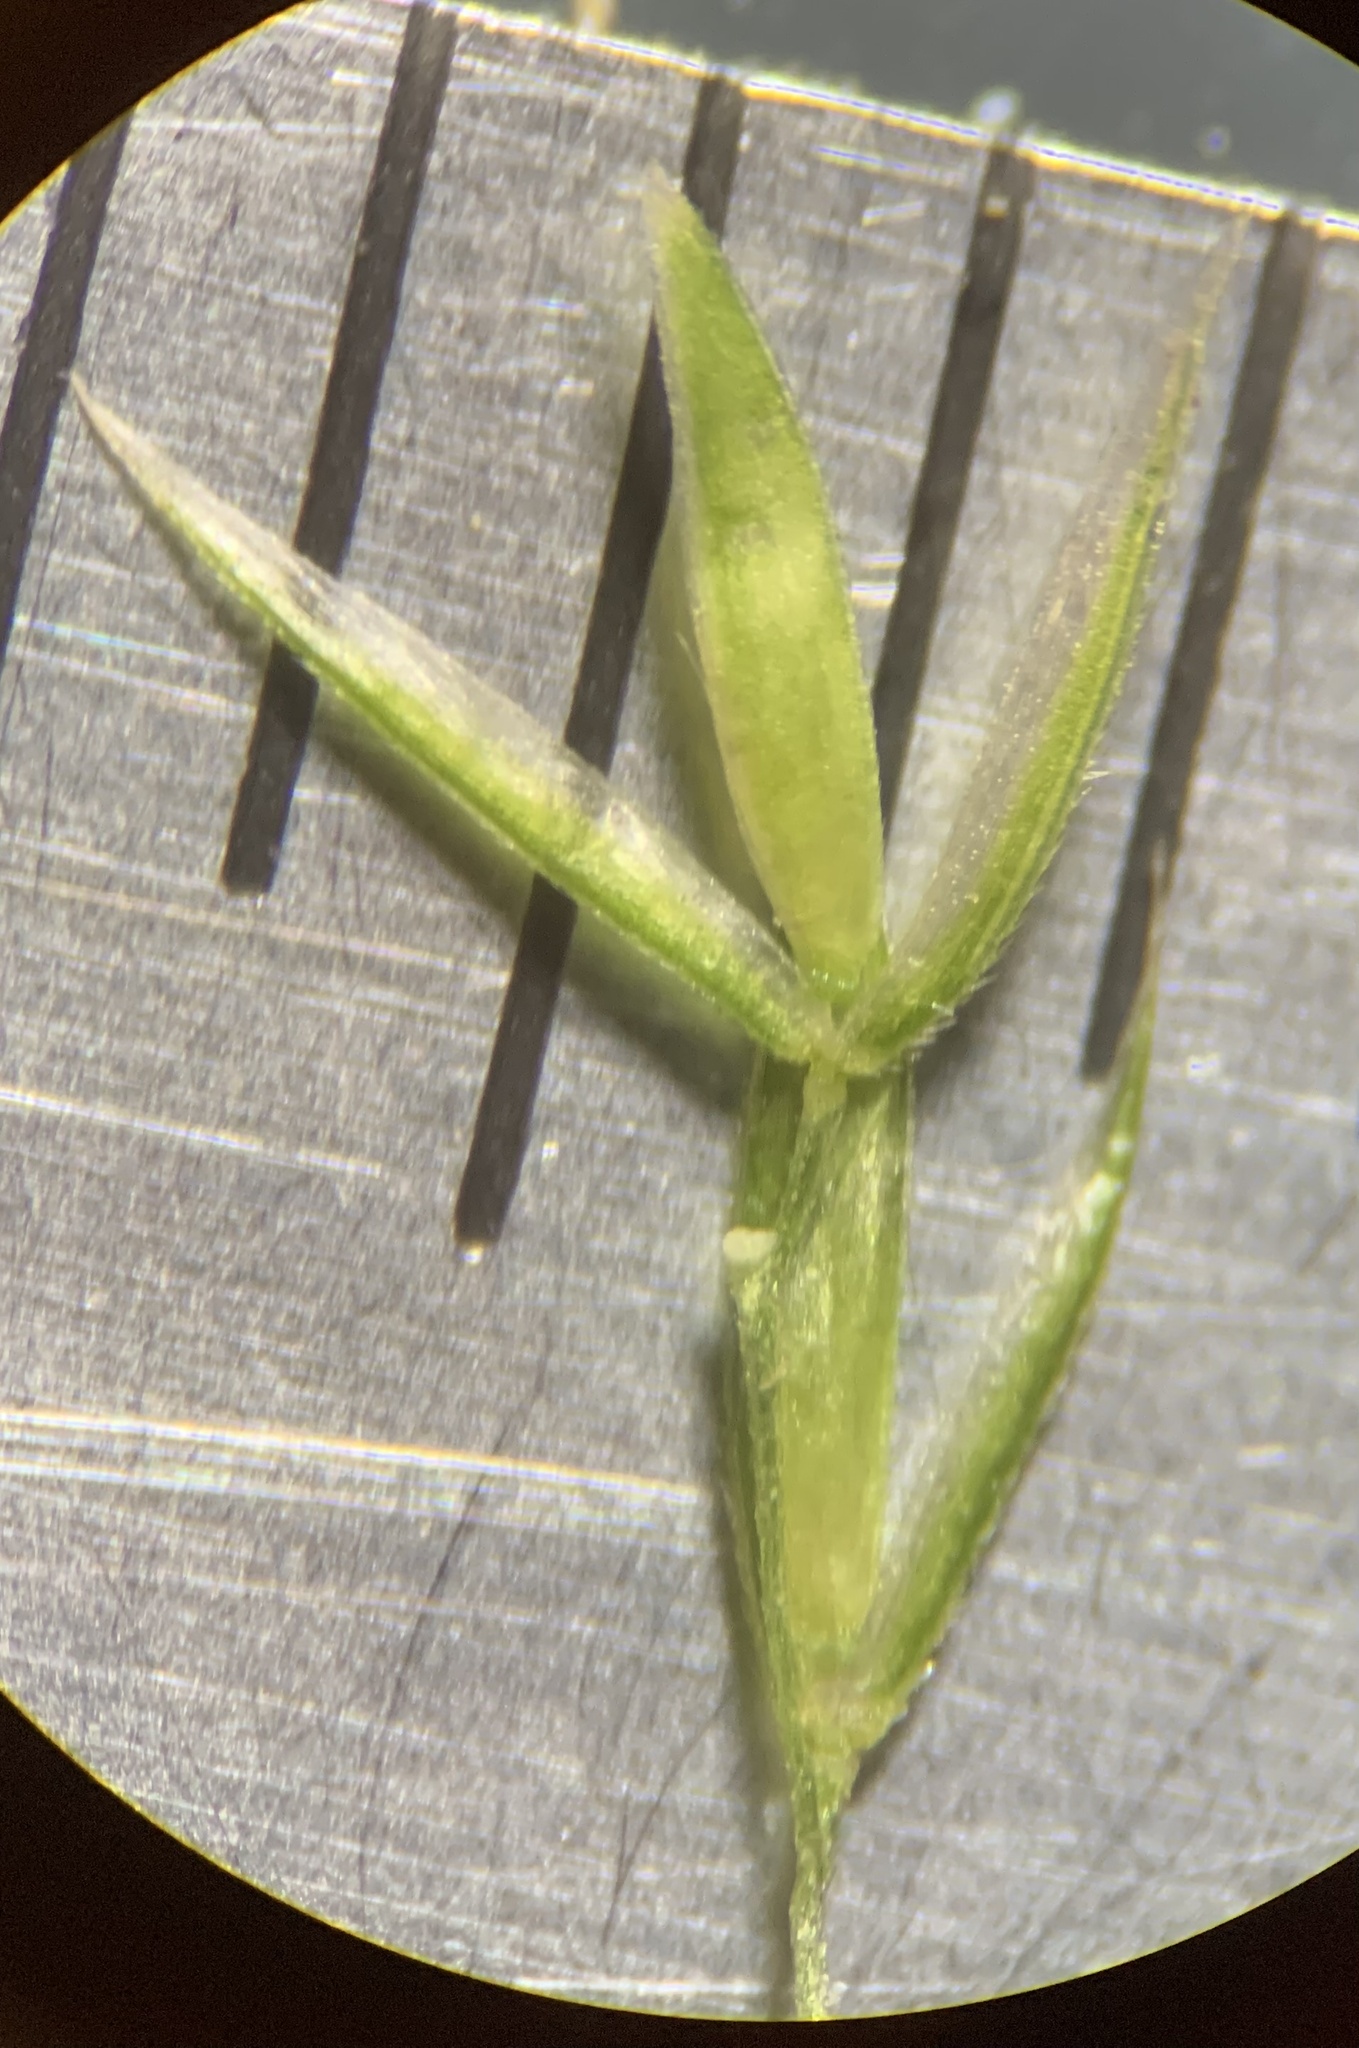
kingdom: Plantae
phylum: Tracheophyta
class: Liliopsida
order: Poales
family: Poaceae
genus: Cinna
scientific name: Cinna latifolia
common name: Drooping woodreed
